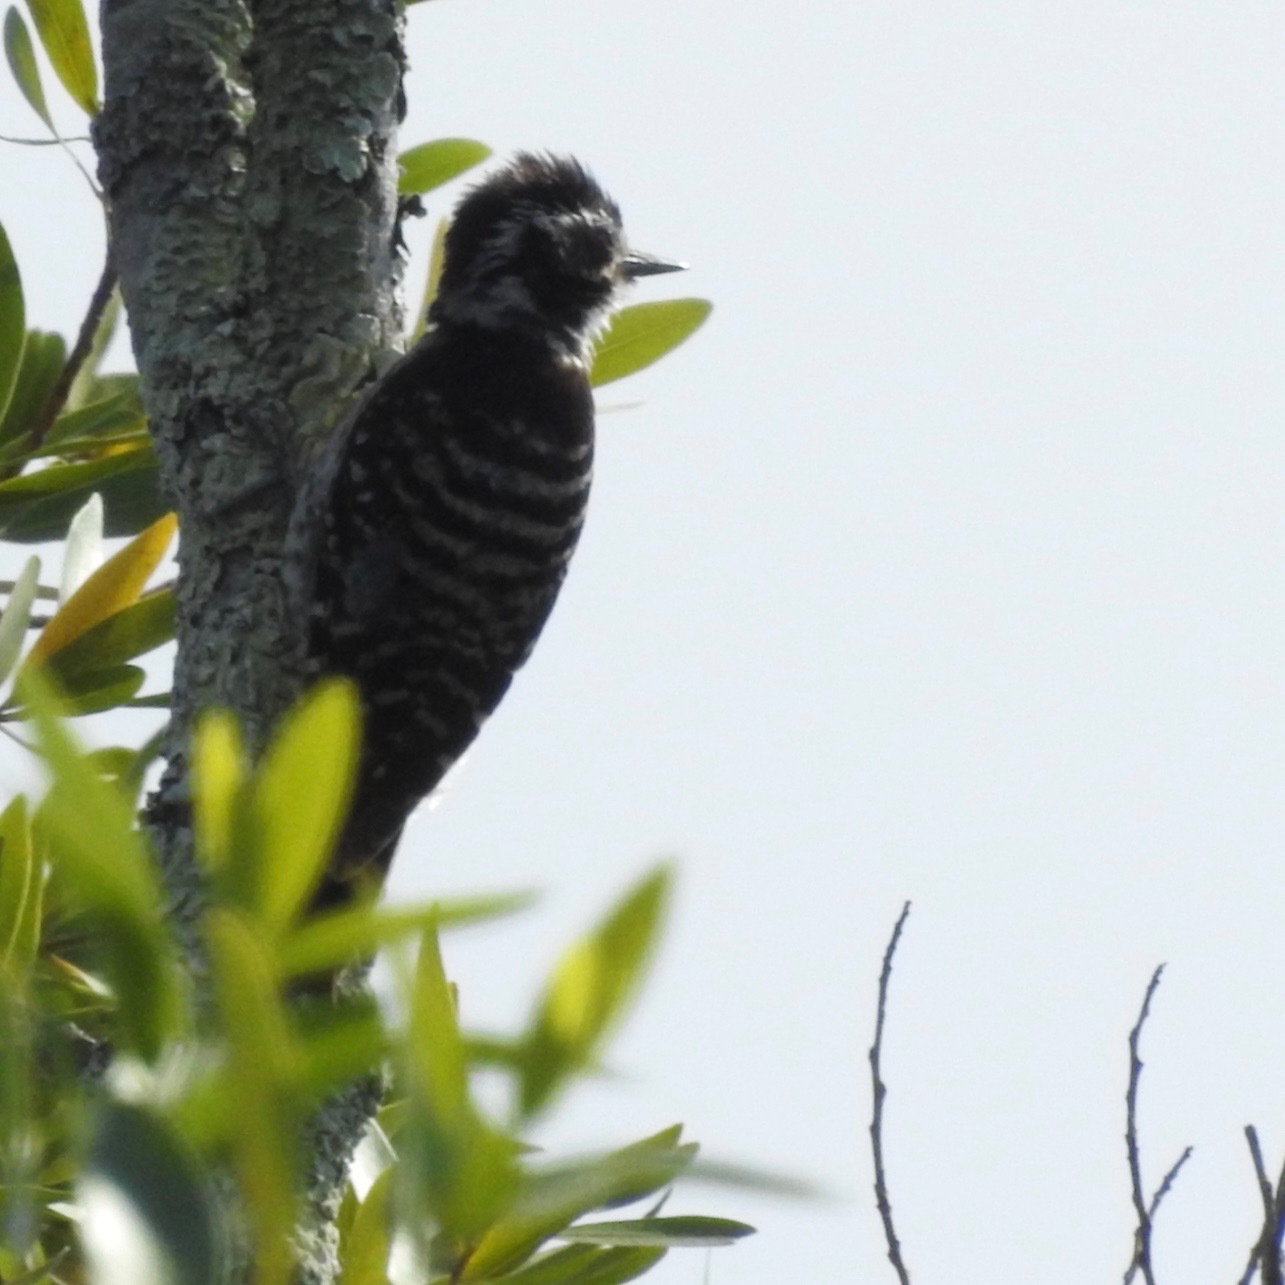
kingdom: Animalia
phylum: Chordata
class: Aves
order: Piciformes
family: Picidae
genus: Dryobates
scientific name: Dryobates nuttallii
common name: Nuttall's woodpecker
